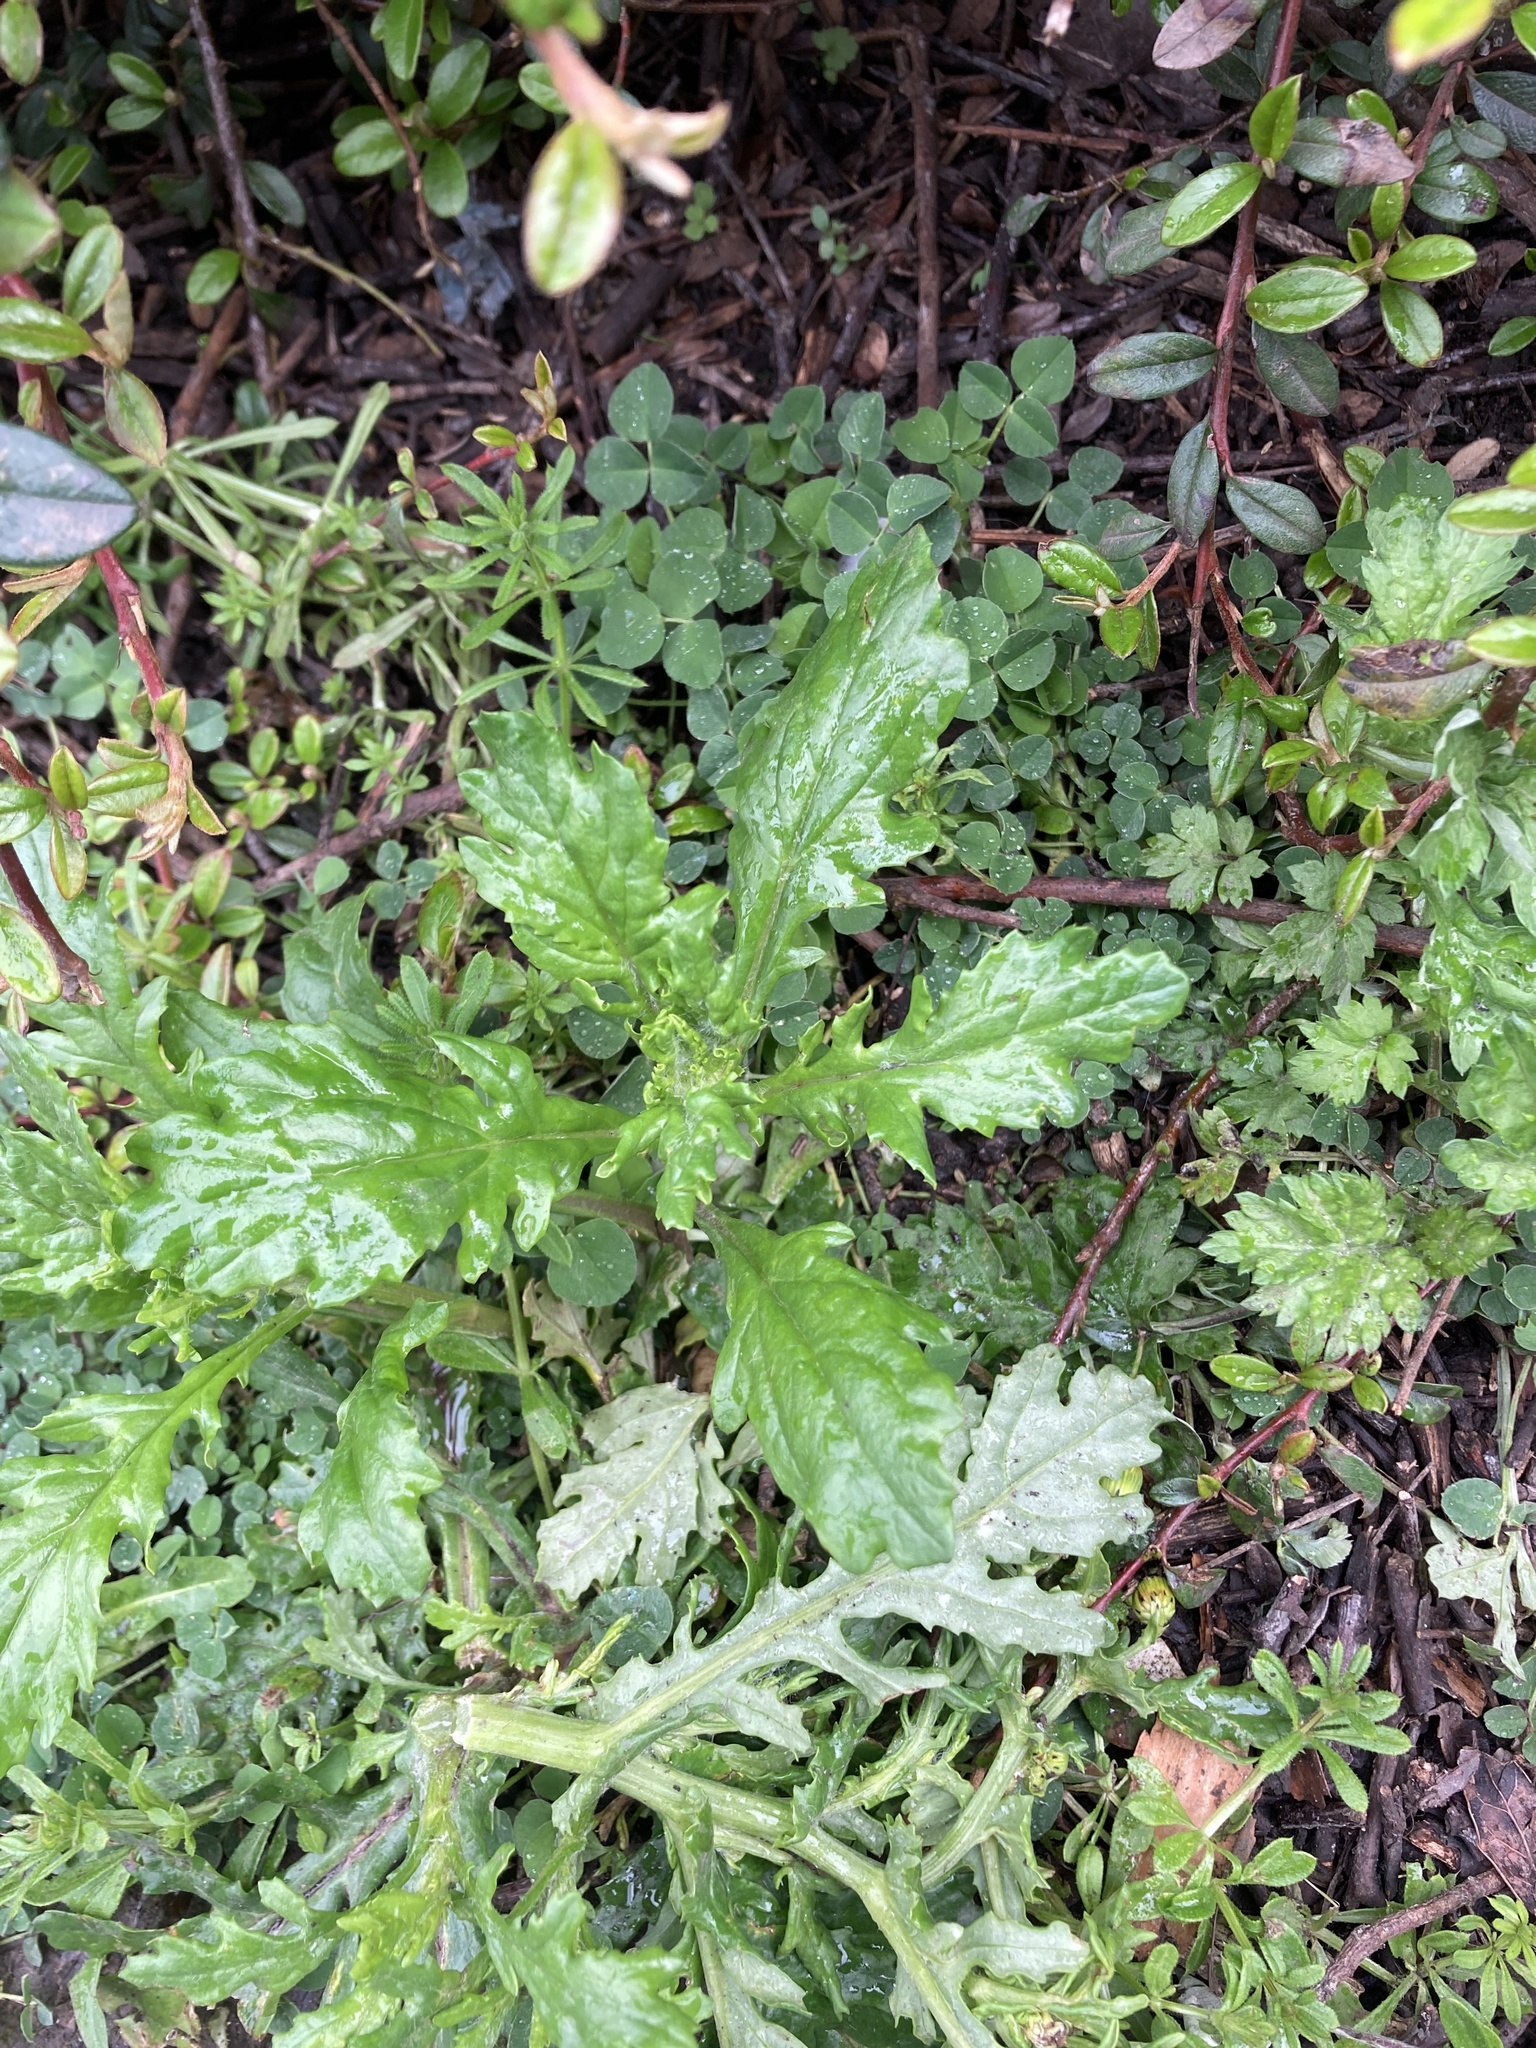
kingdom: Plantae
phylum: Tracheophyta
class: Magnoliopsida
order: Asterales
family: Asteraceae
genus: Senecio
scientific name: Senecio vulgaris
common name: Old-man-in-the-spring
